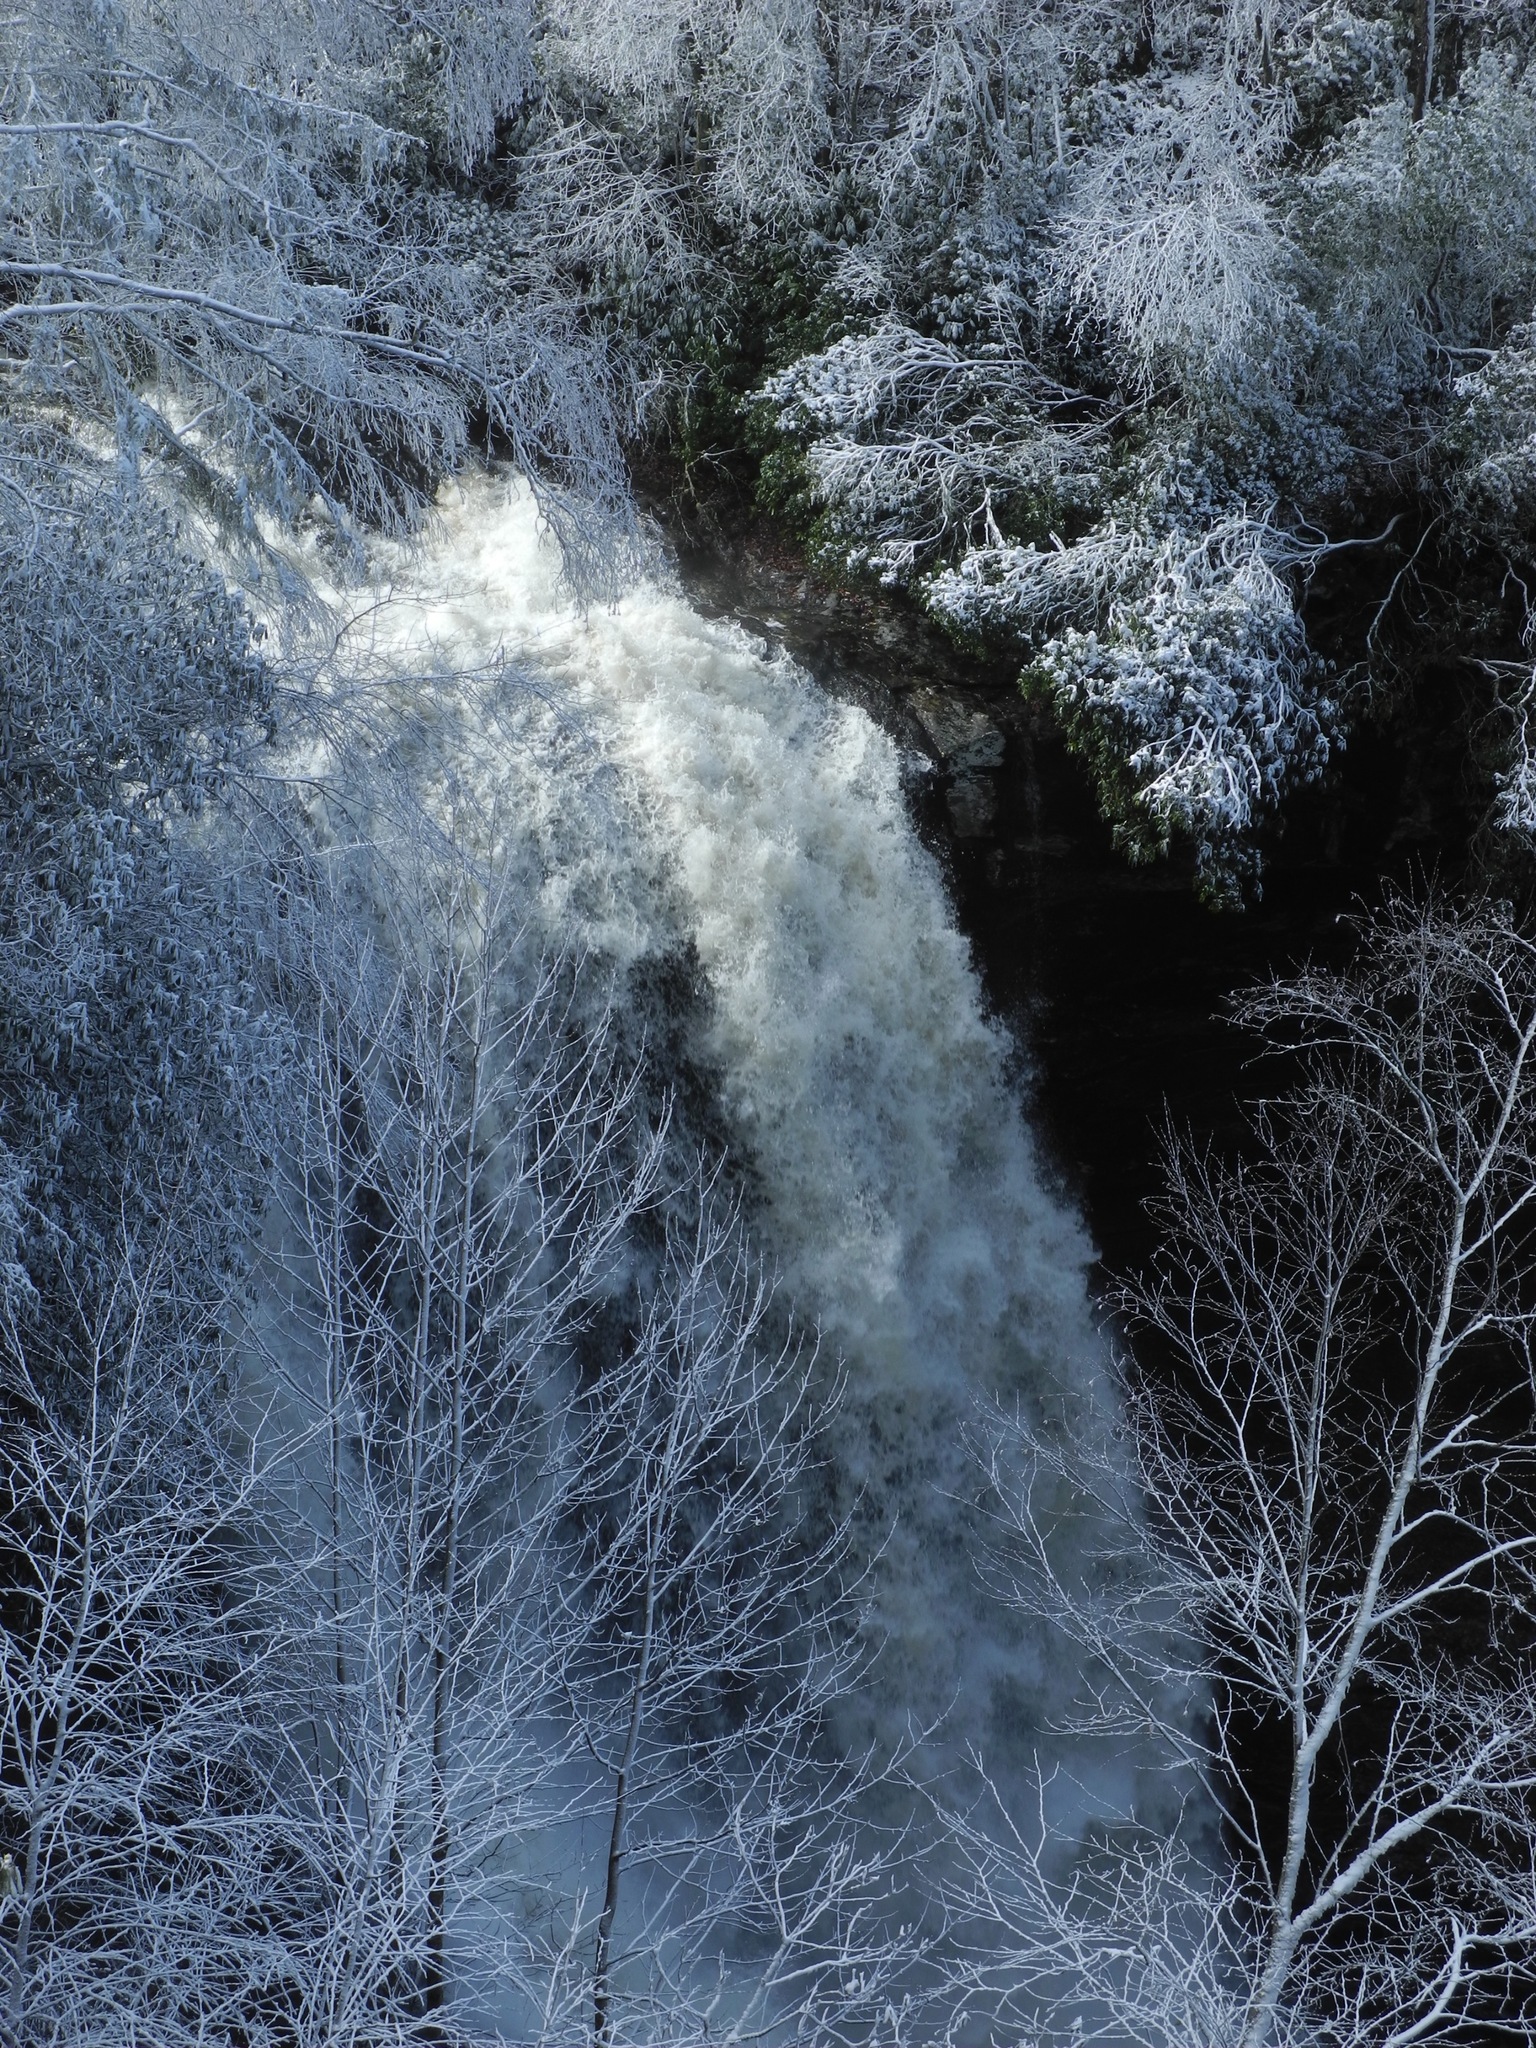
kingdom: Plantae
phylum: Tracheophyta
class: Magnoliopsida
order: Magnoliales
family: Magnoliaceae
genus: Liriodendron
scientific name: Liriodendron tulipifera
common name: Tulip tree
